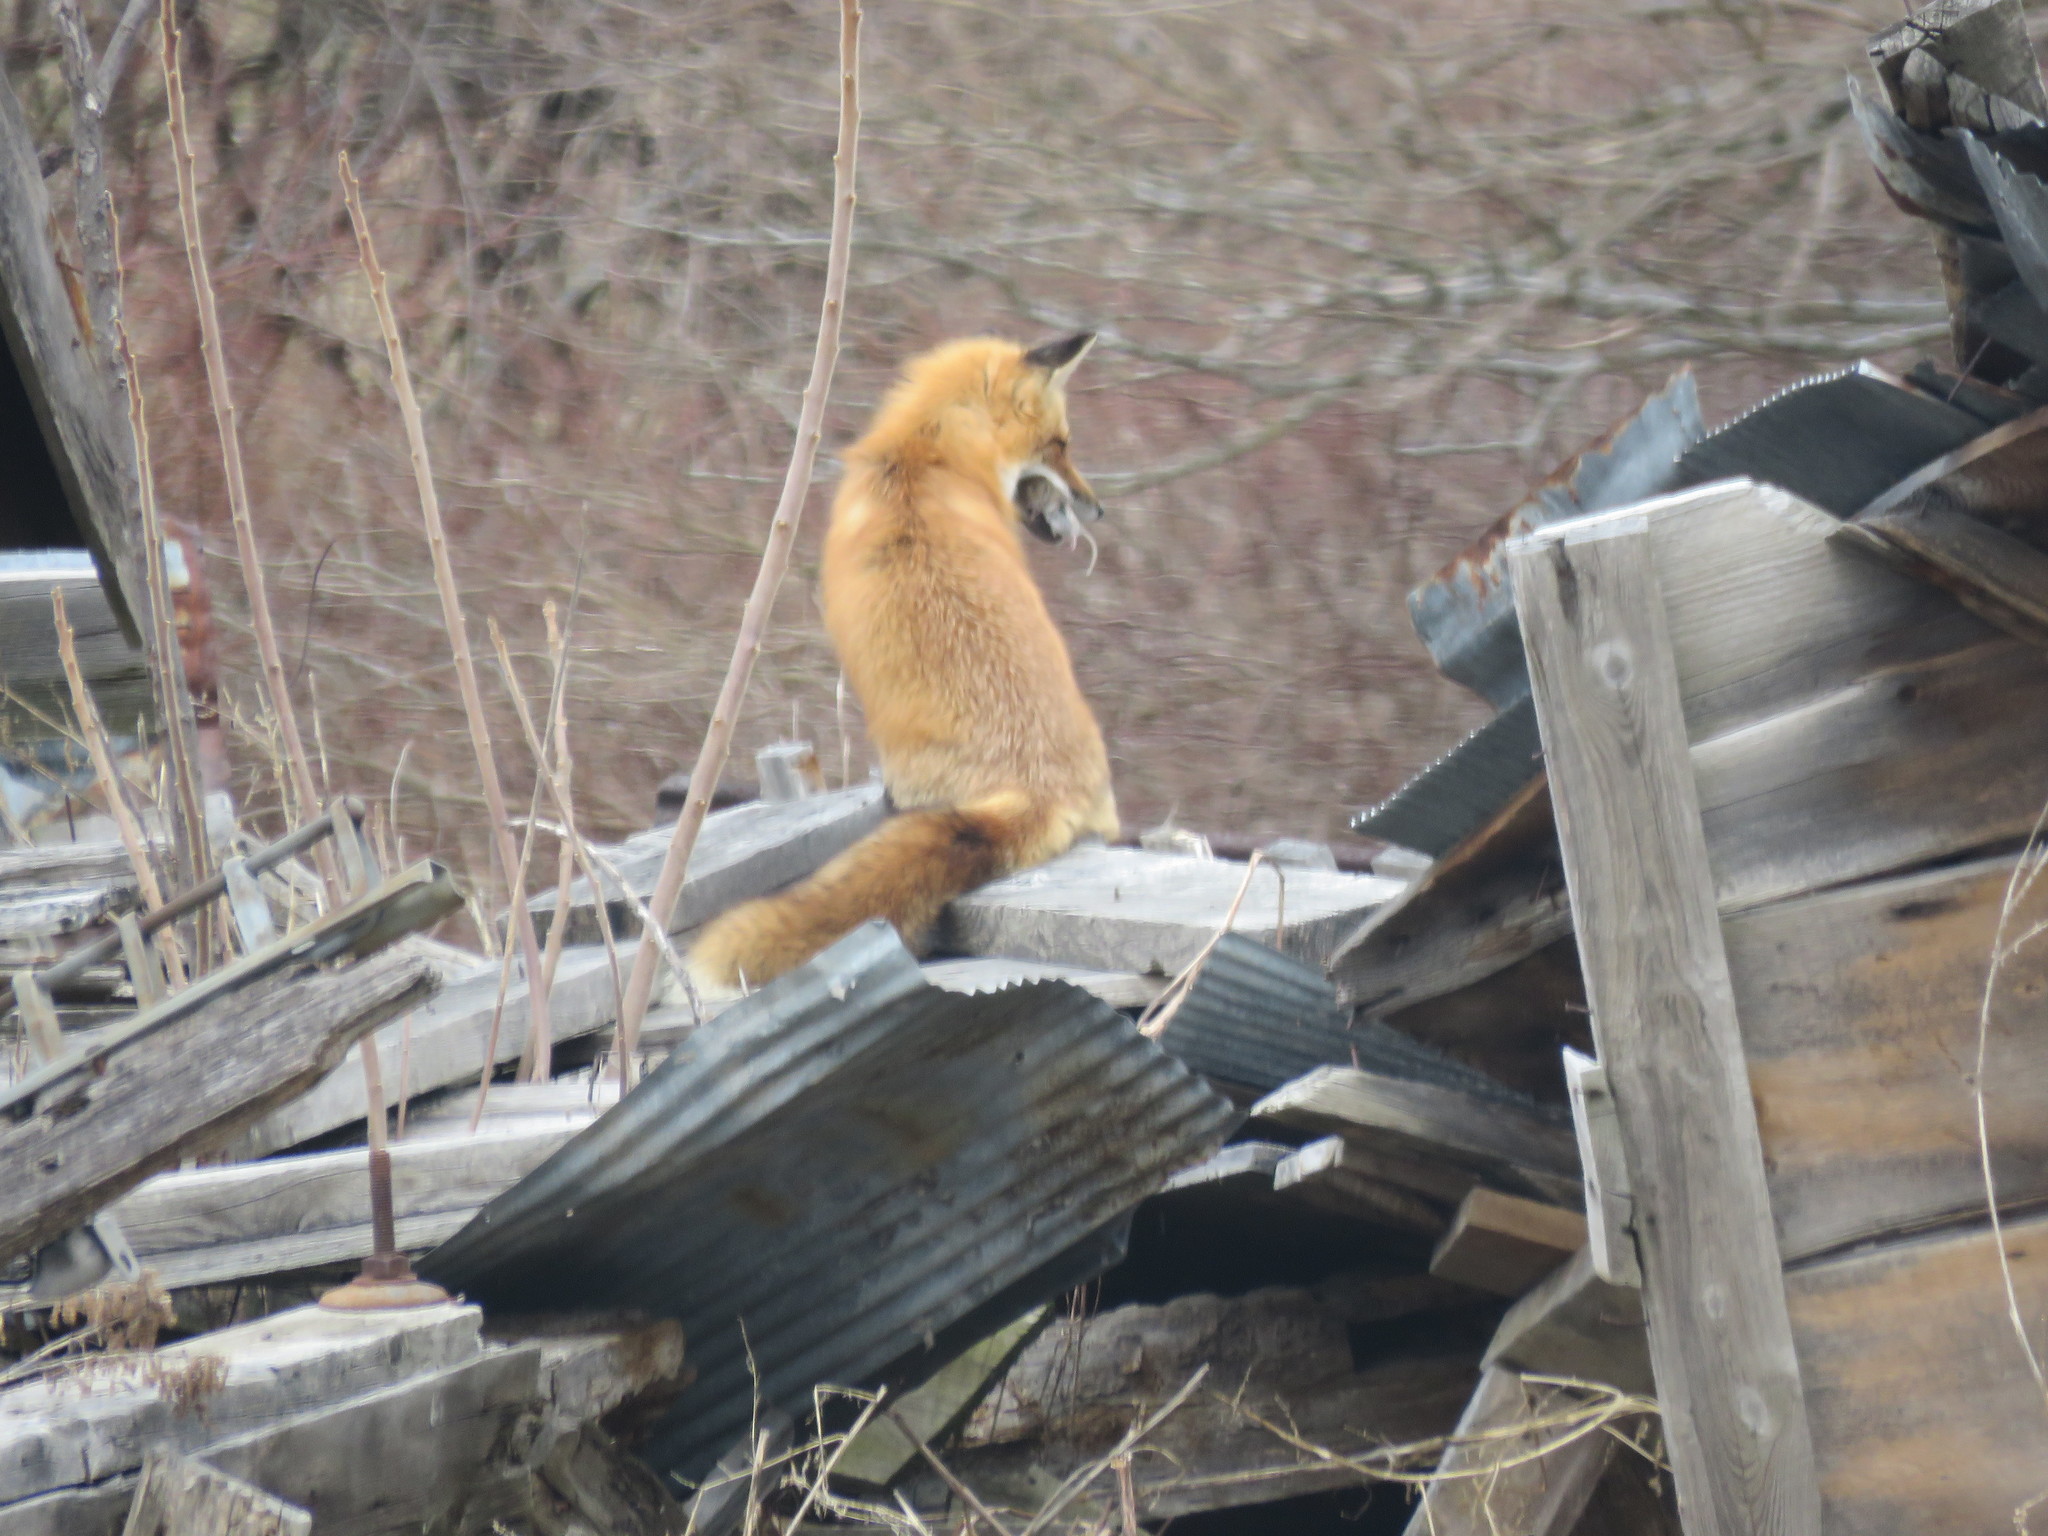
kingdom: Animalia
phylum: Chordata
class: Mammalia
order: Carnivora
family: Canidae
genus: Vulpes
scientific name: Vulpes vulpes
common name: Red fox
